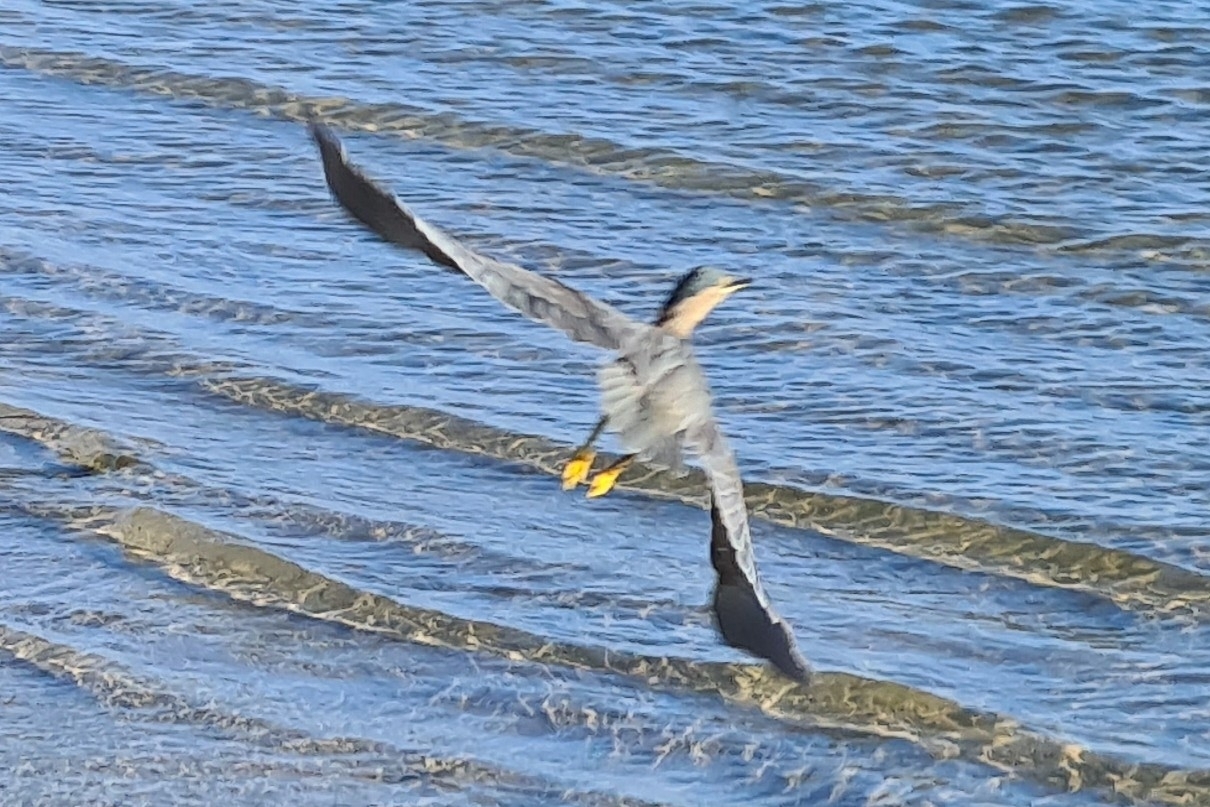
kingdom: Animalia
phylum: Chordata
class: Aves
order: Pelecaniformes
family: Ardeidae
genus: Butorides
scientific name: Butorides striata
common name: Striated heron
